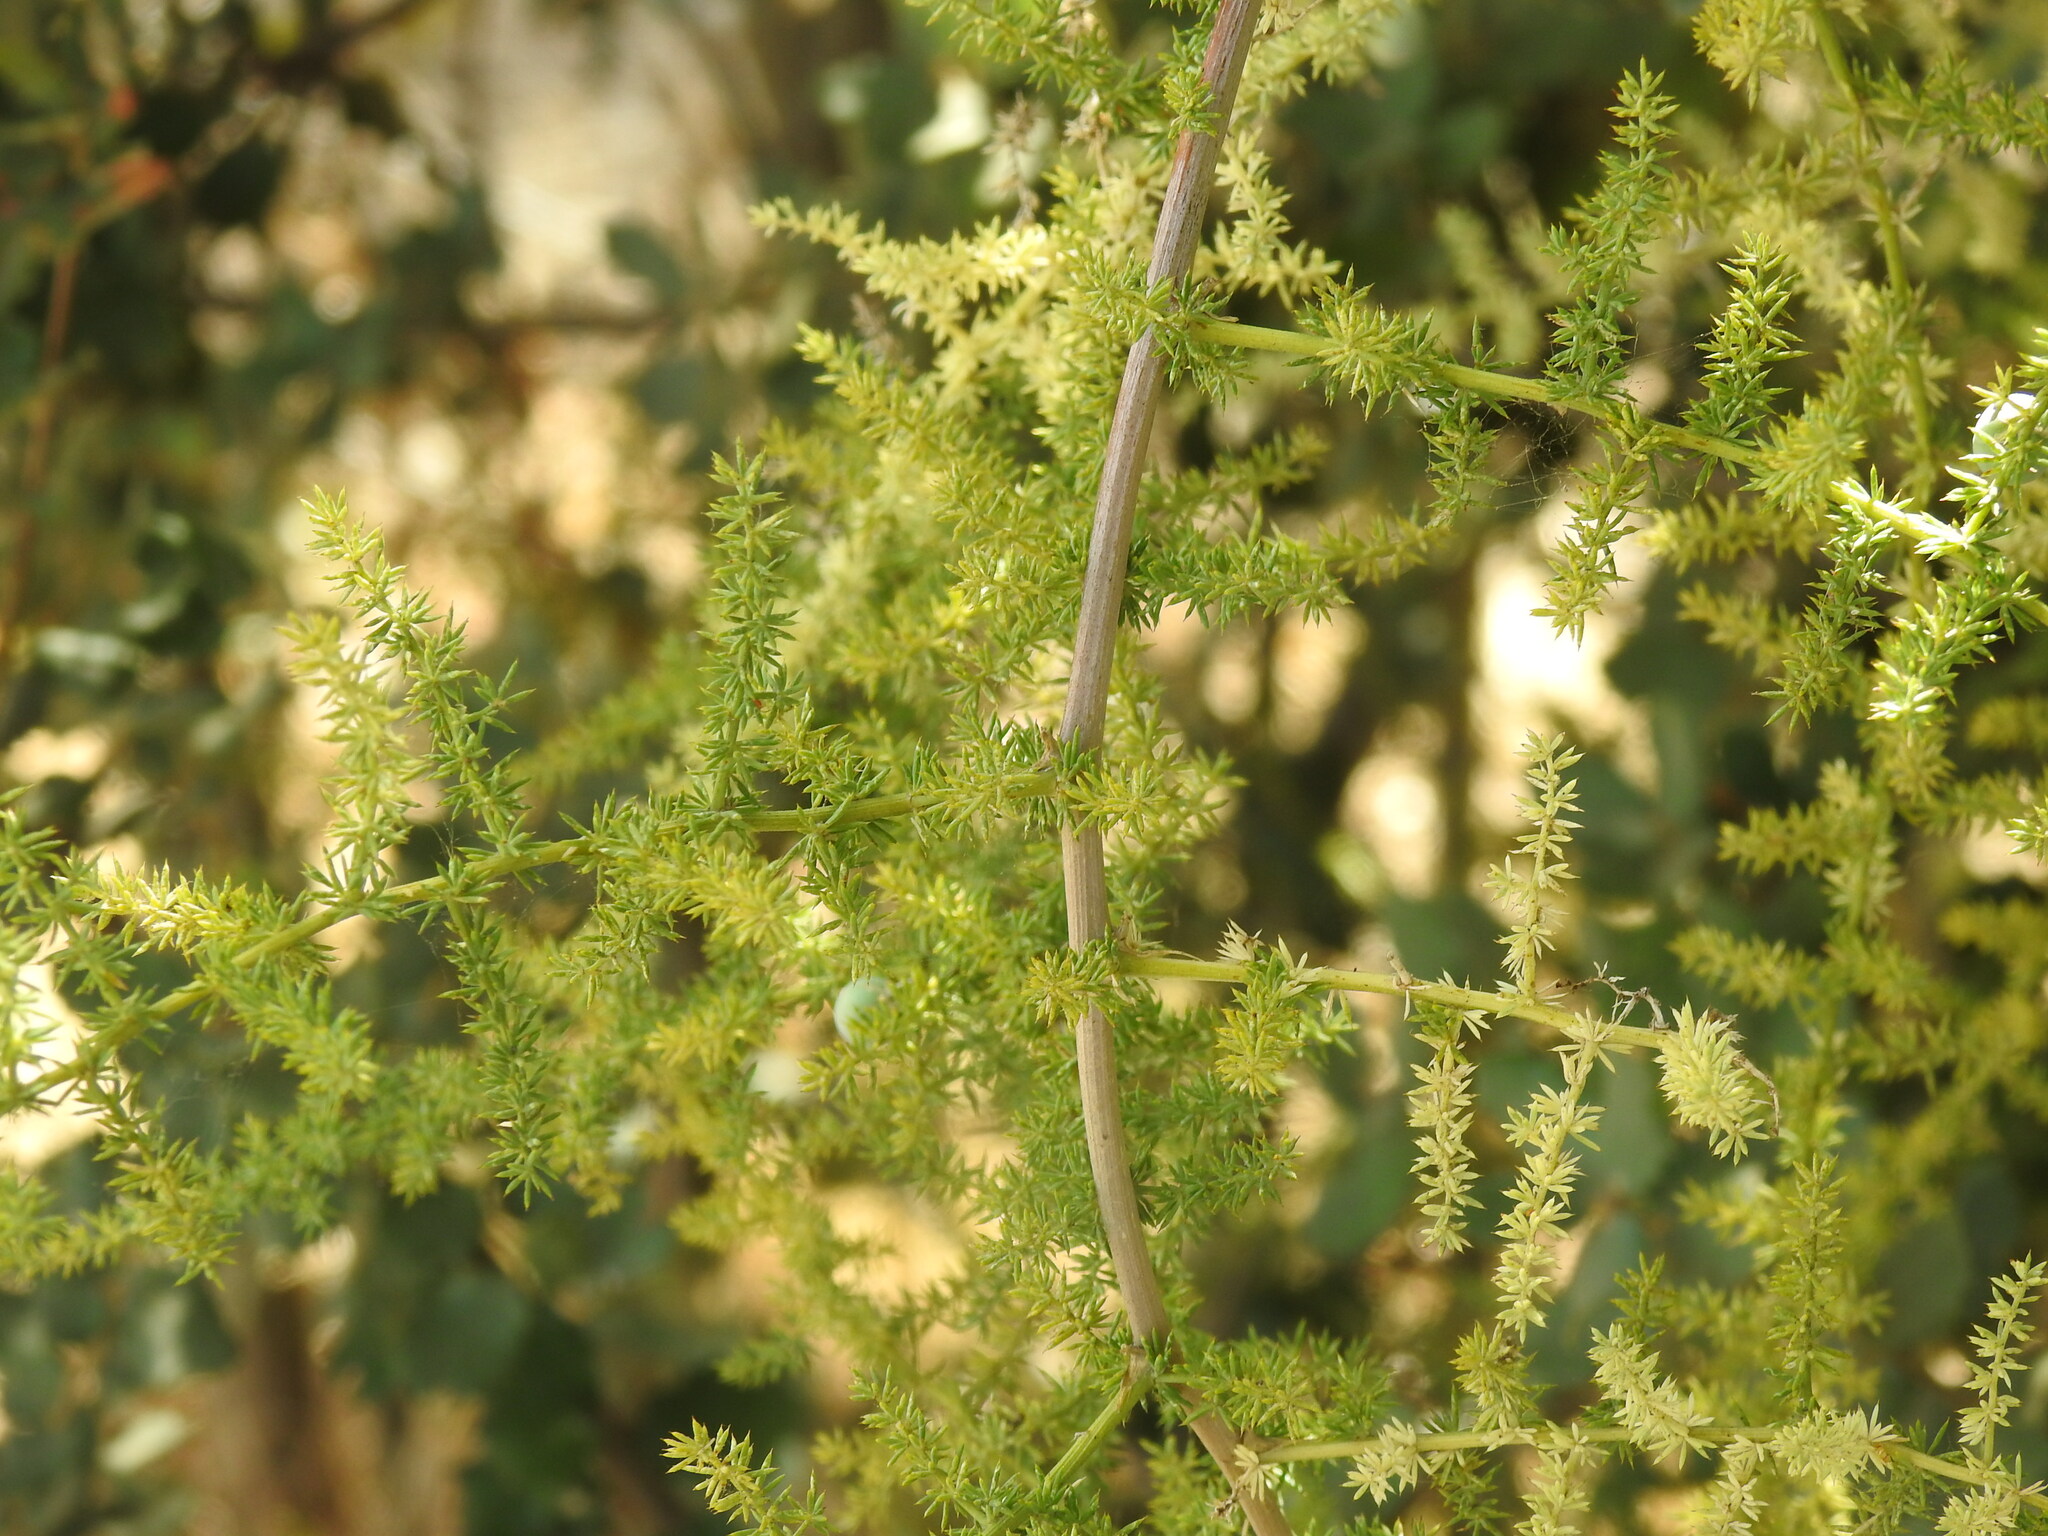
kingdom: Plantae
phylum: Tracheophyta
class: Liliopsida
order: Asparagales
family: Asparagaceae
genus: Asparagus
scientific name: Asparagus acutifolius
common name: Wild asparagus
